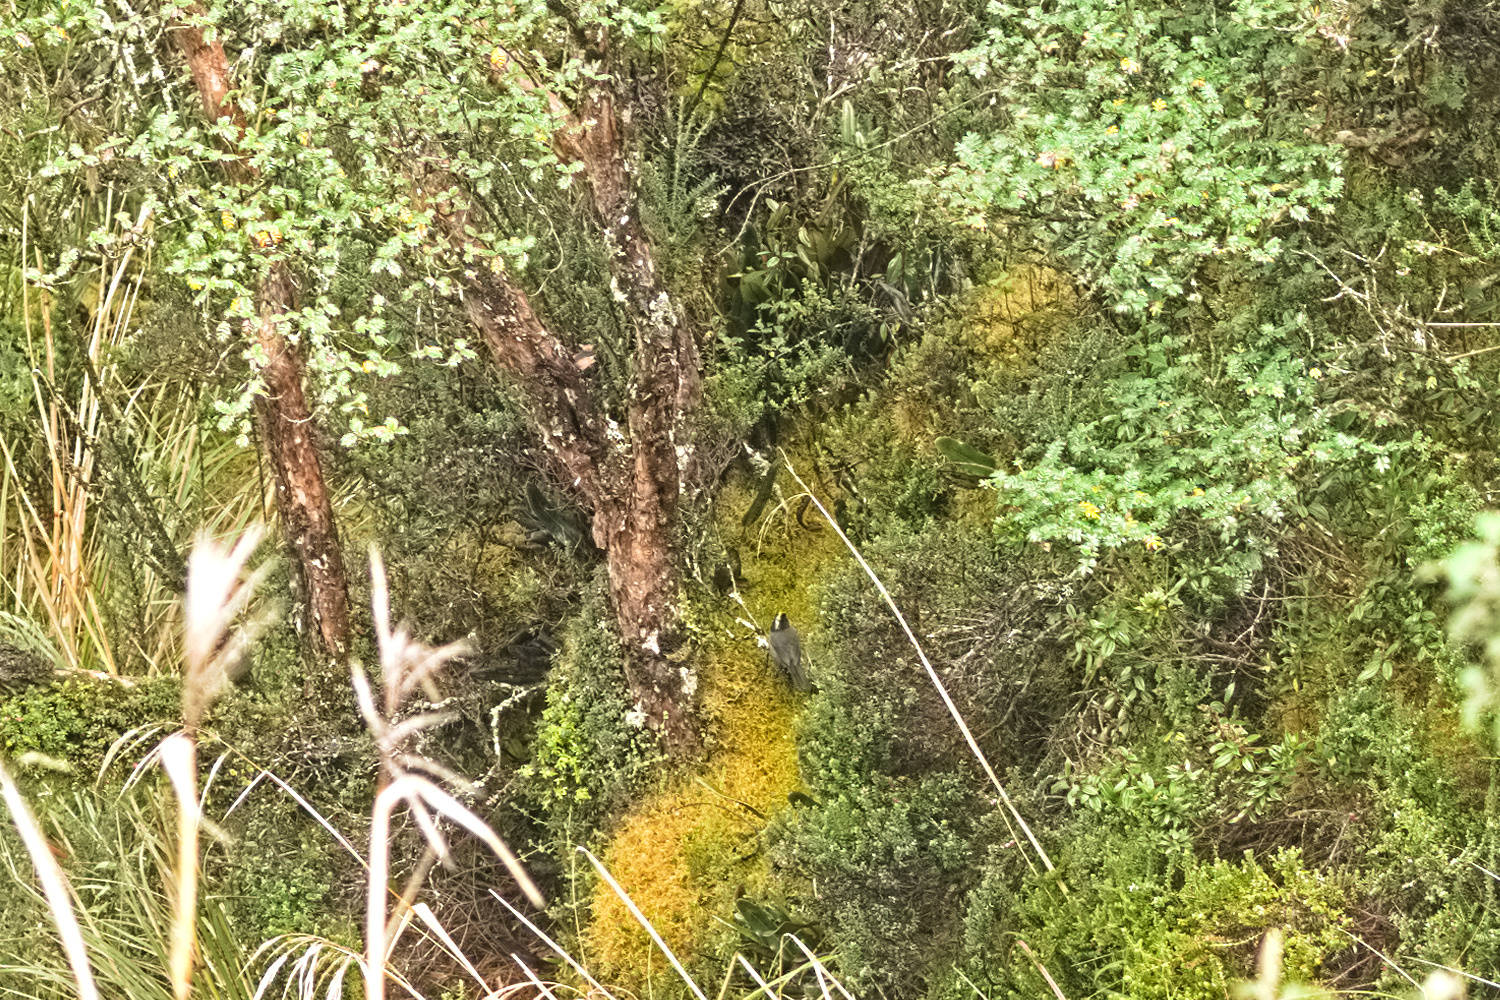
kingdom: Animalia
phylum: Chordata
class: Aves
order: Passeriformes
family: Passerellidae
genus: Atlapetes
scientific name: Atlapetes pallidinucha
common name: Pale-naped brushfinch
